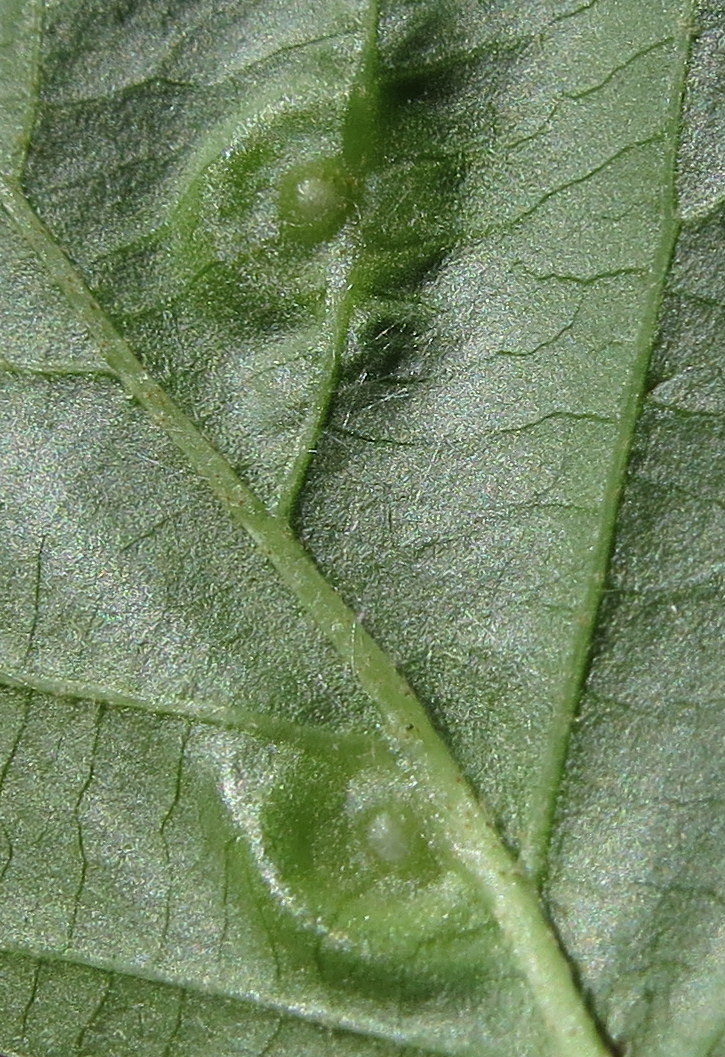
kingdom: Animalia
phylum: Arthropoda
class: Insecta
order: Hemiptera
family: Aphididae
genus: Hormaphis
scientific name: Hormaphis hamamelidis
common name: Witch-hazel cone gall aphid
